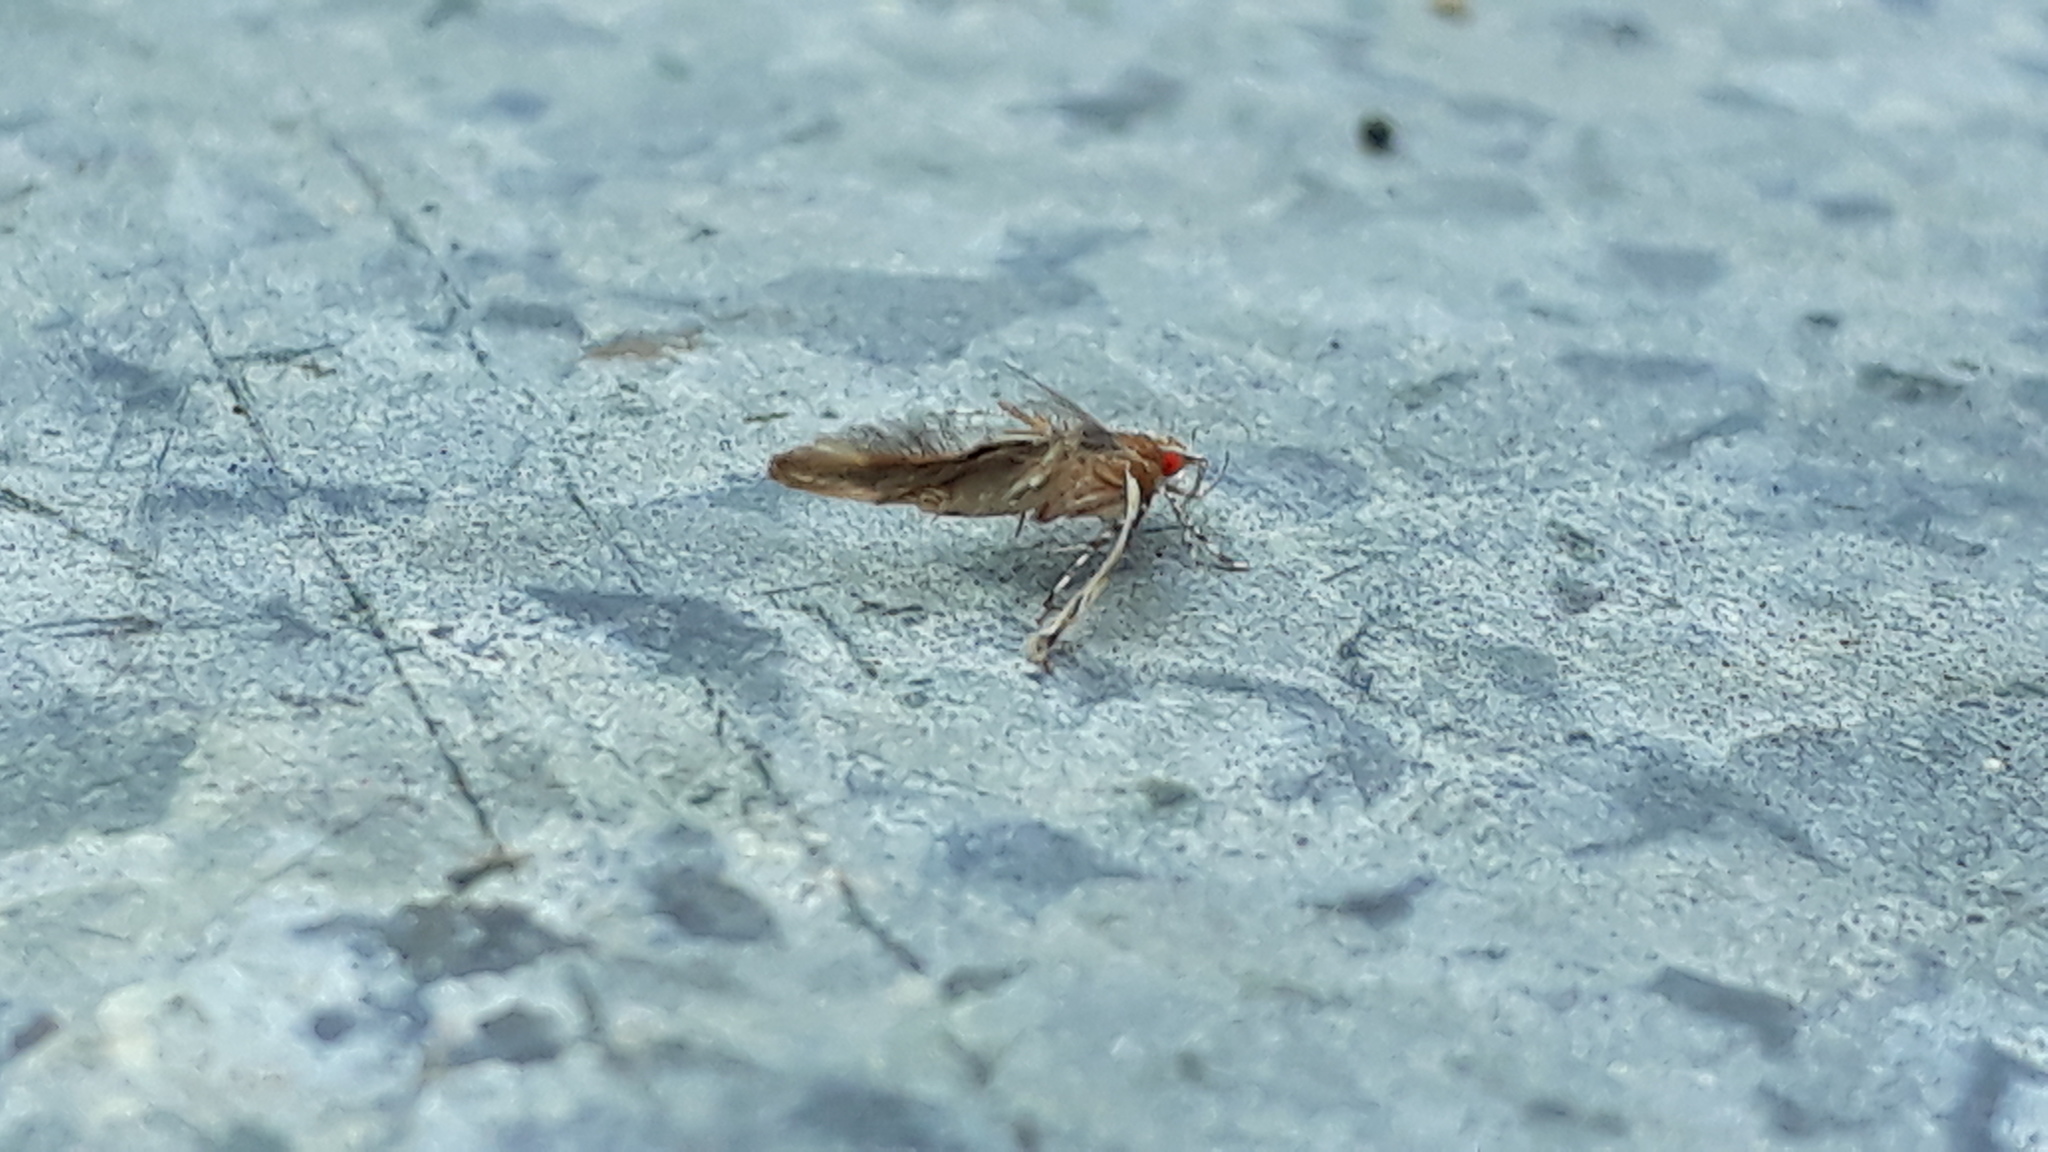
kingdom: Animalia
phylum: Arthropoda
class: Insecta
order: Lepidoptera
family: Cosmopterigidae
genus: Pyroderces
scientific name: Pyroderces apparitella
